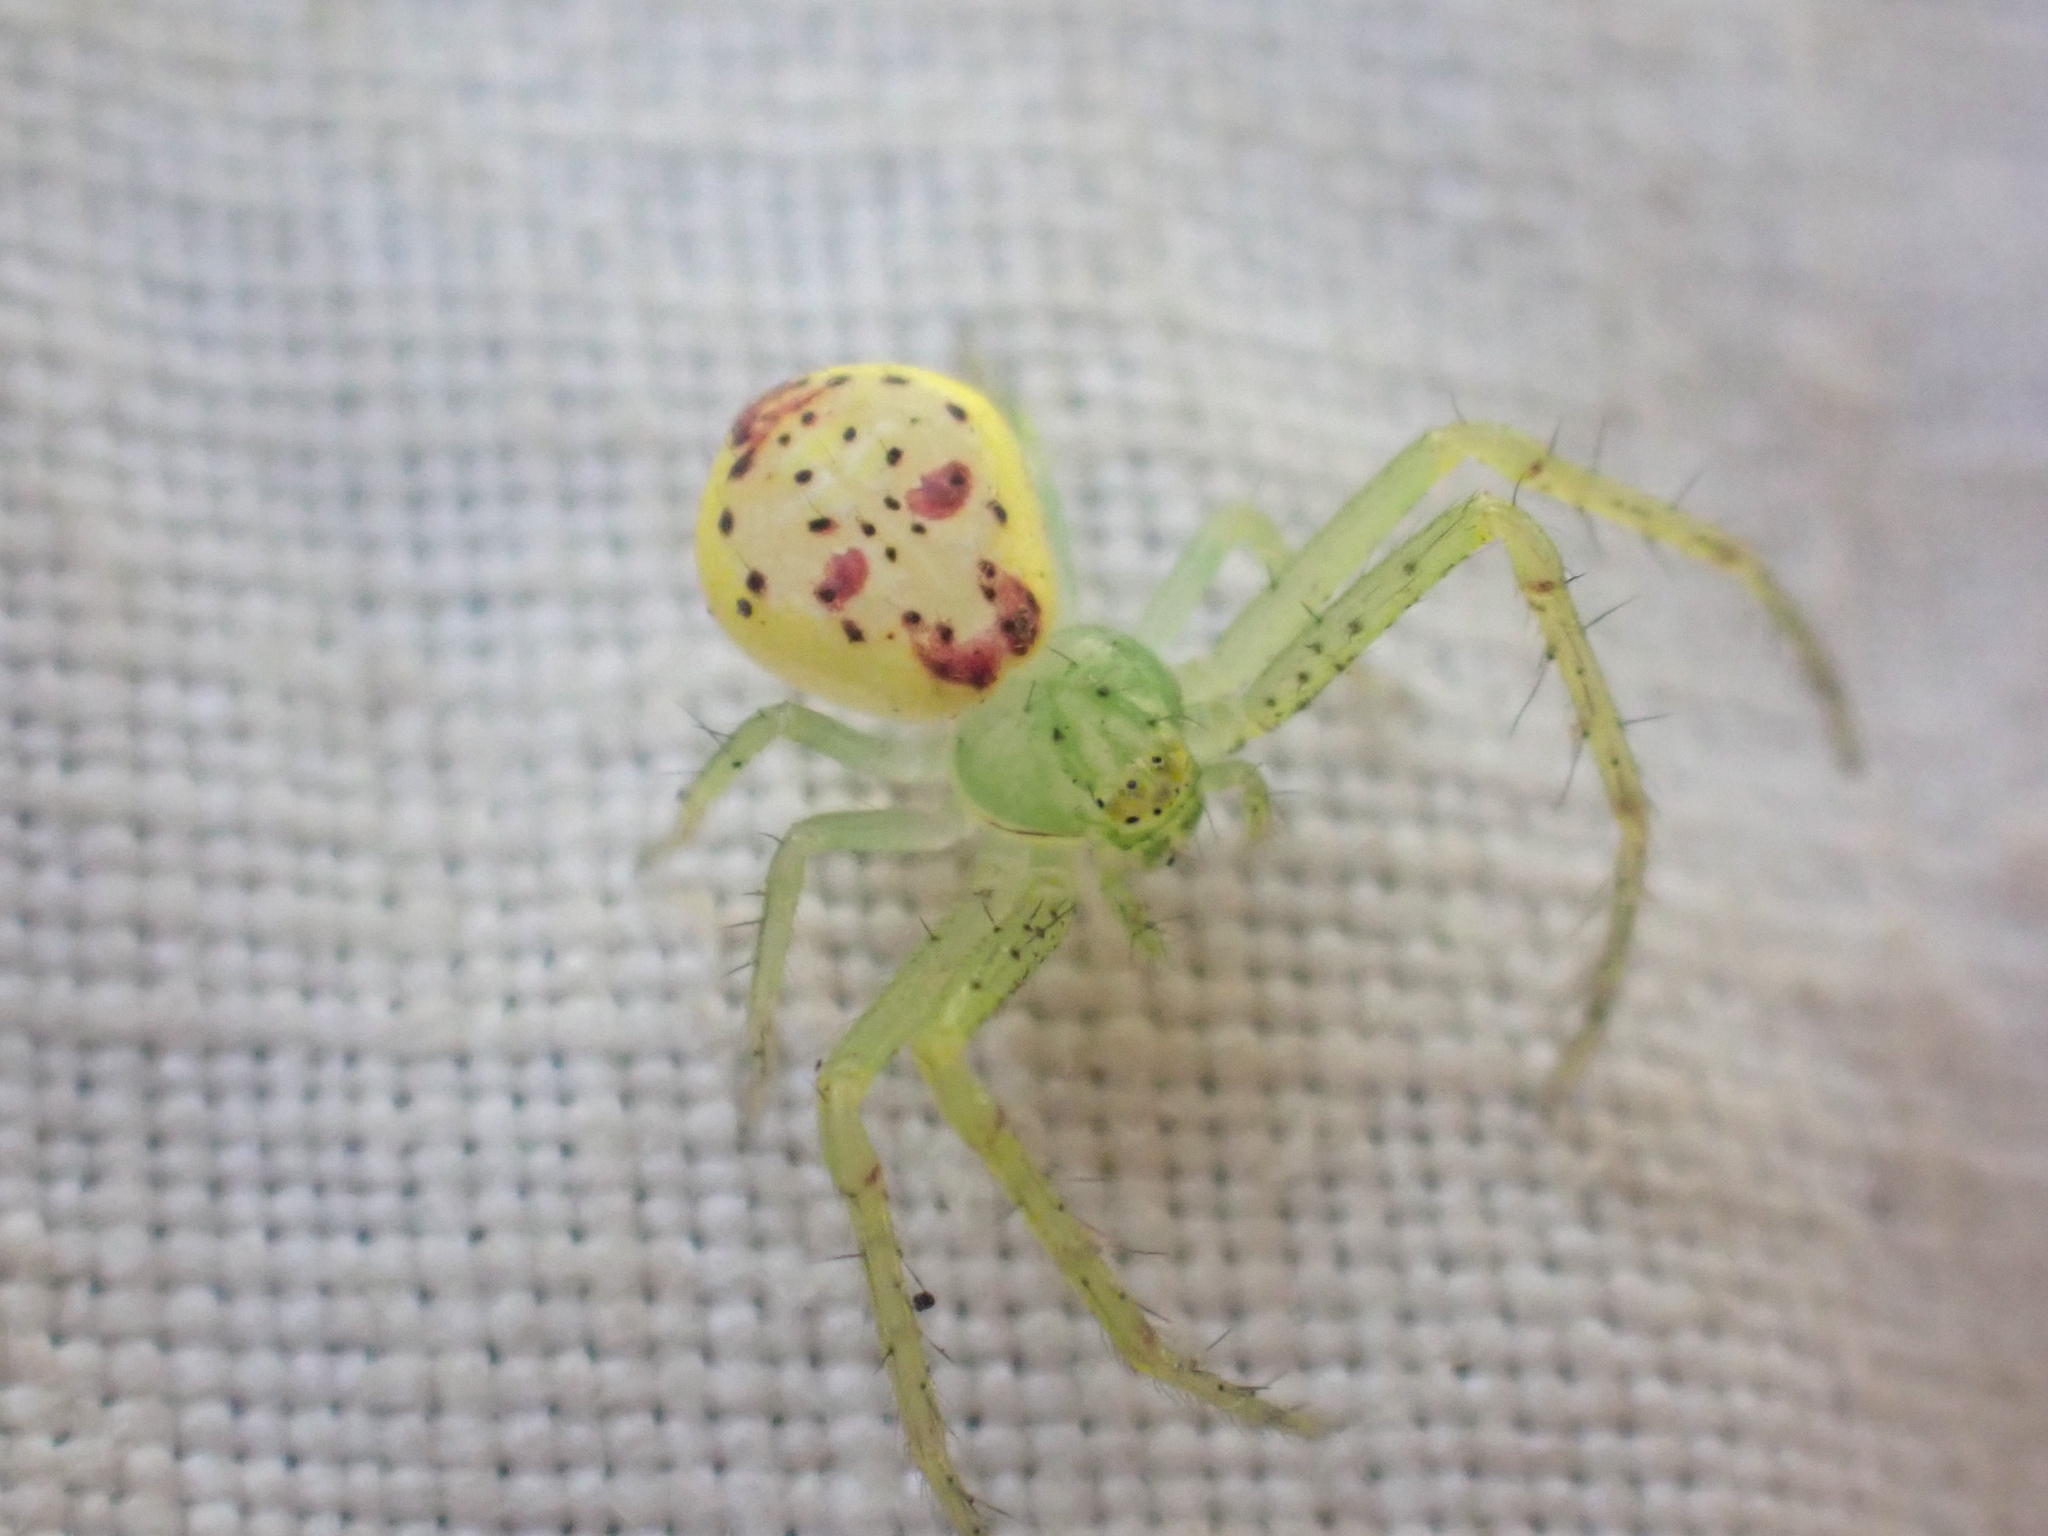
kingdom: Animalia
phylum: Arthropoda
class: Arachnida
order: Araneae
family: Thomisidae
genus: Diaea
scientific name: Diaea livens
